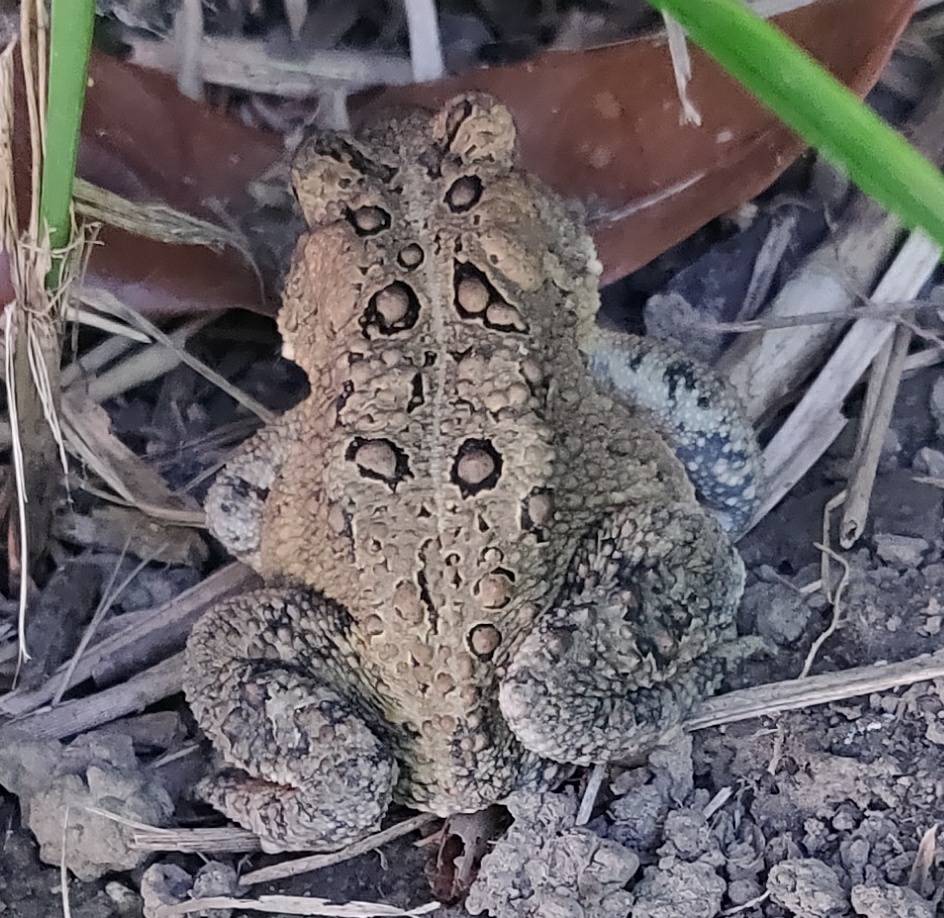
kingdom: Animalia
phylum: Chordata
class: Amphibia
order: Anura
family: Bufonidae
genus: Anaxyrus
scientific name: Anaxyrus americanus
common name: American toad
